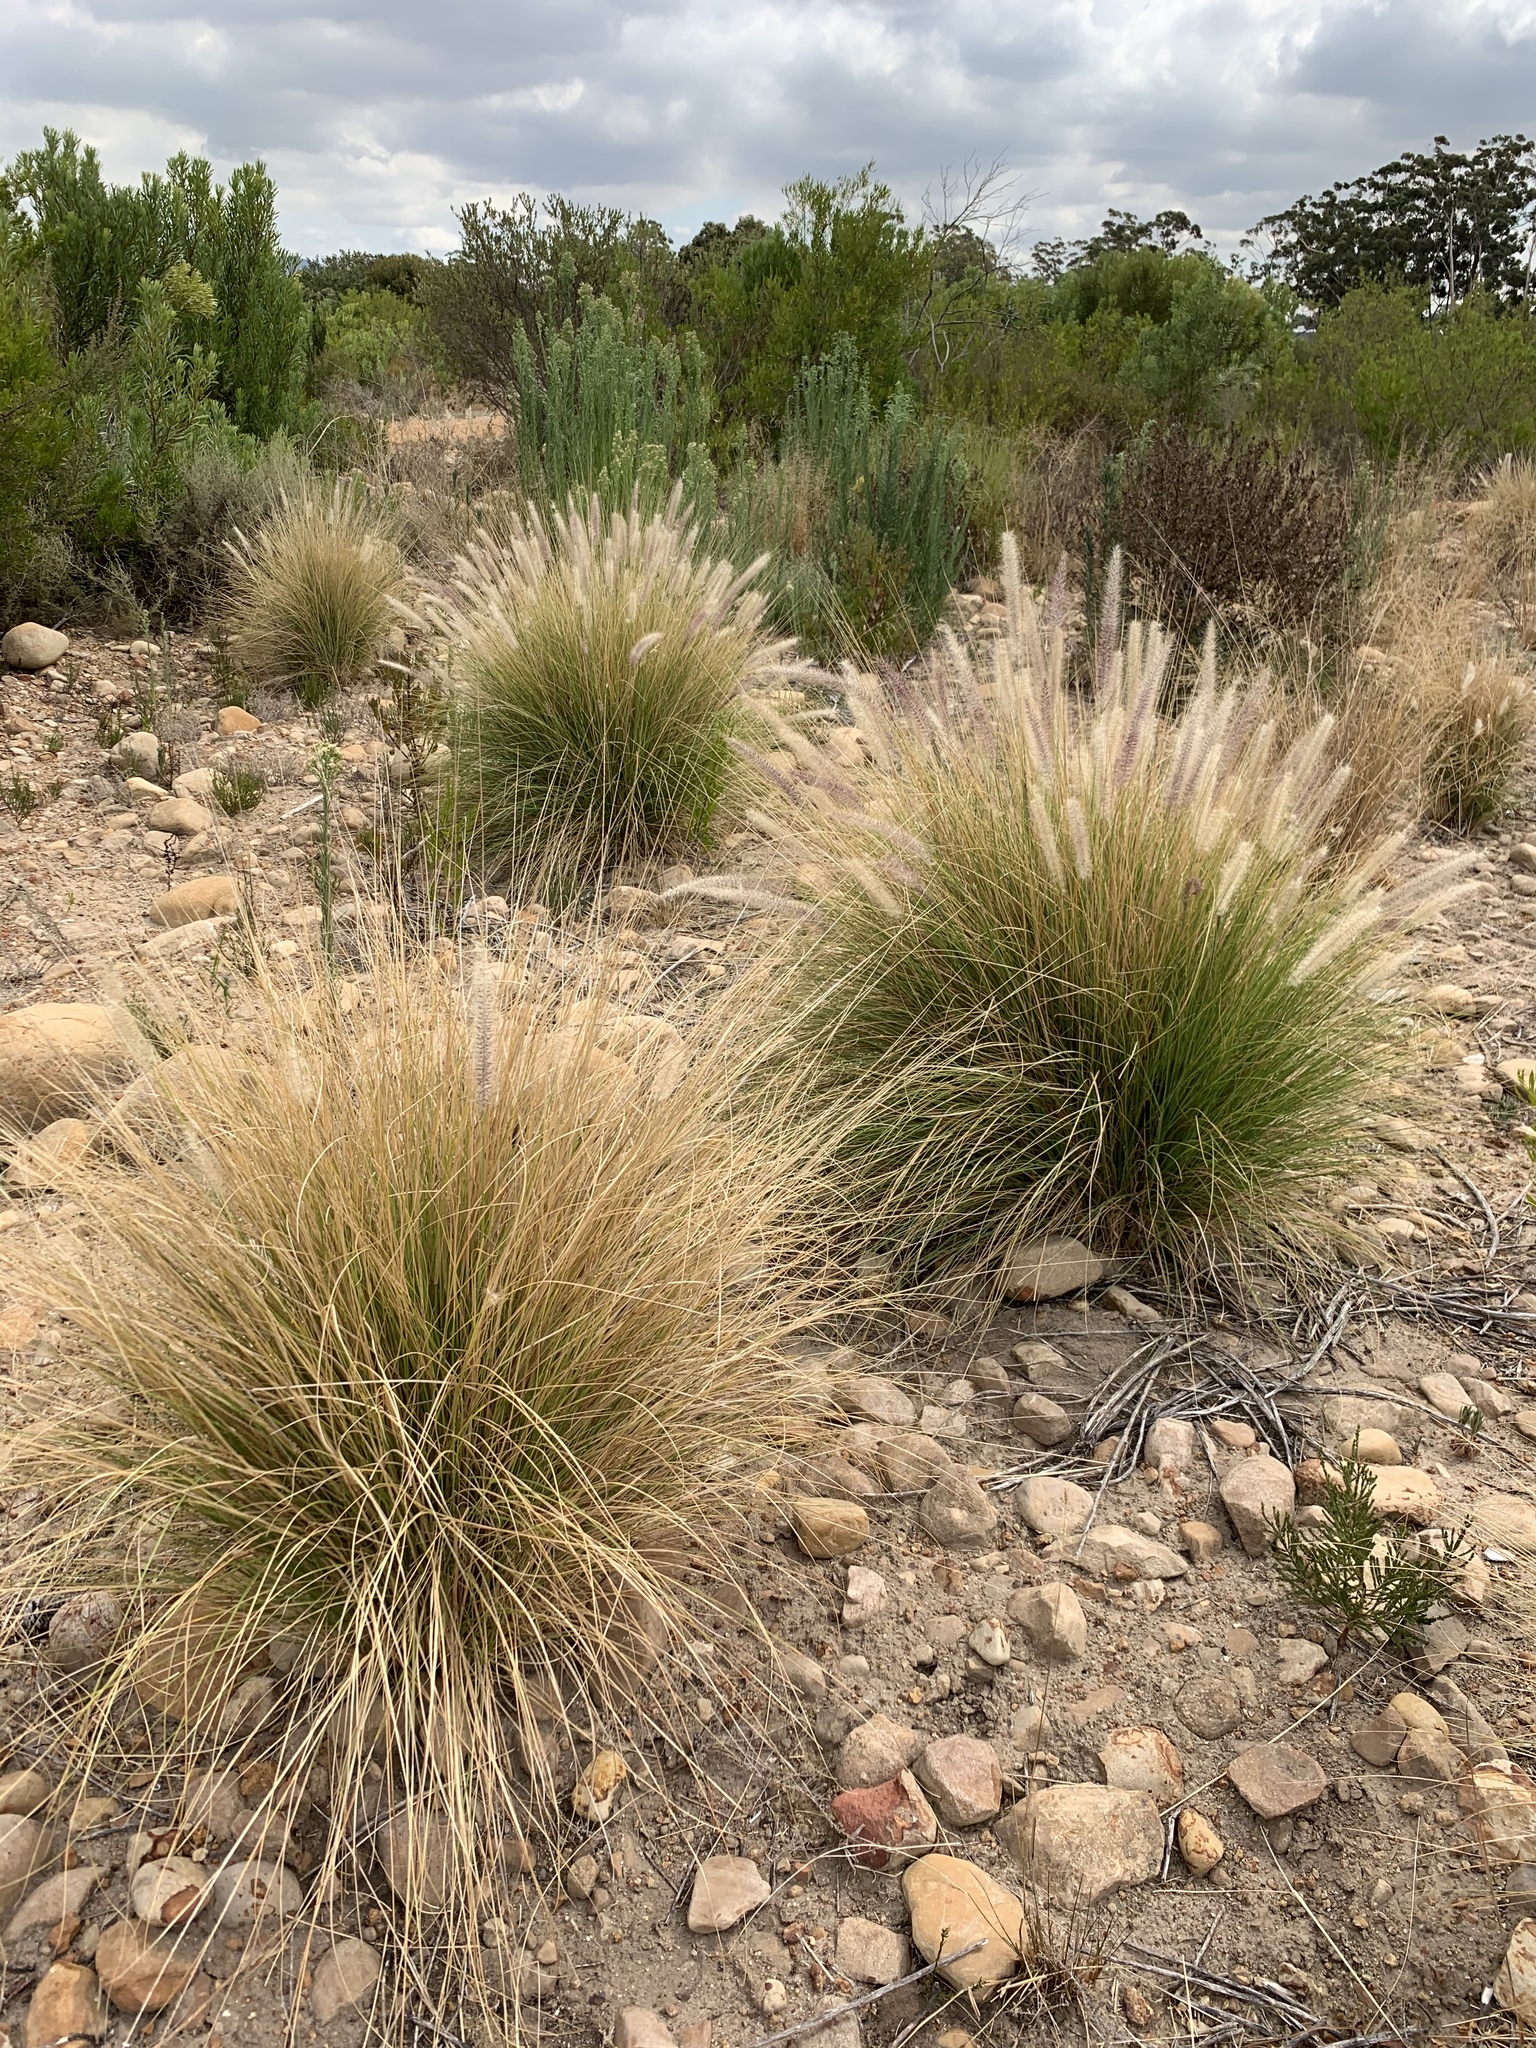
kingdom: Plantae
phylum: Tracheophyta
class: Liliopsida
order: Poales
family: Poaceae
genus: Cenchrus
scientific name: Cenchrus setaceus
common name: Crimson fountaingrass
